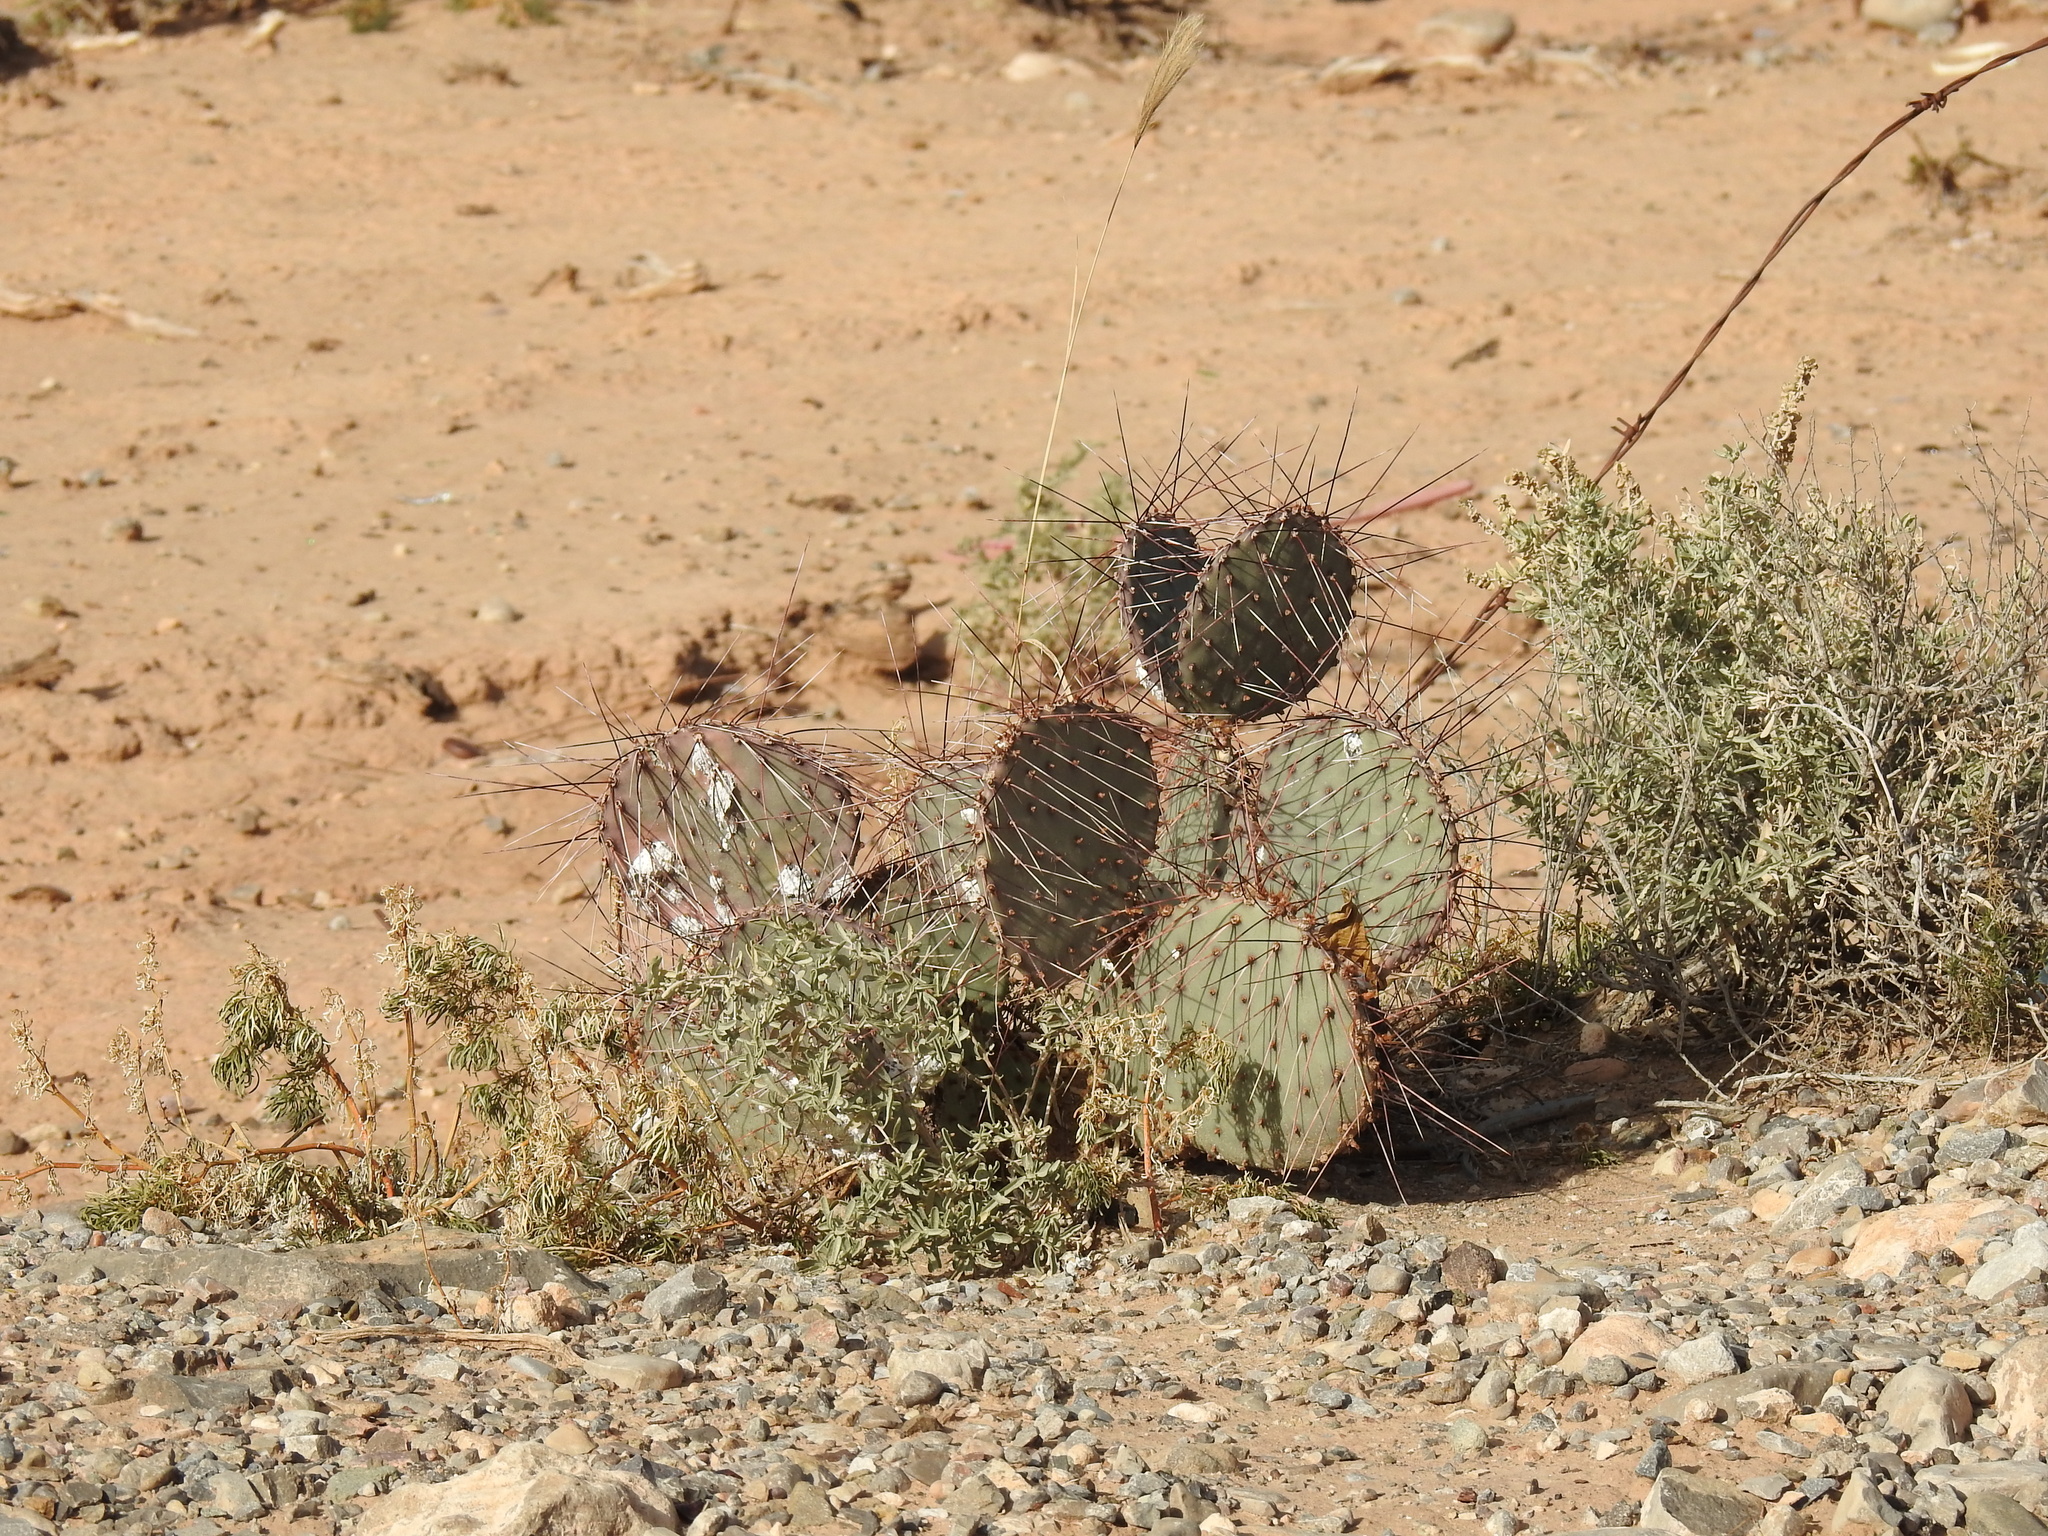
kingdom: Plantae
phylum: Tracheophyta
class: Magnoliopsida
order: Caryophyllales
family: Cactaceae
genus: Opuntia
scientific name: Opuntia macrocentra
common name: Purple prickly-pear
